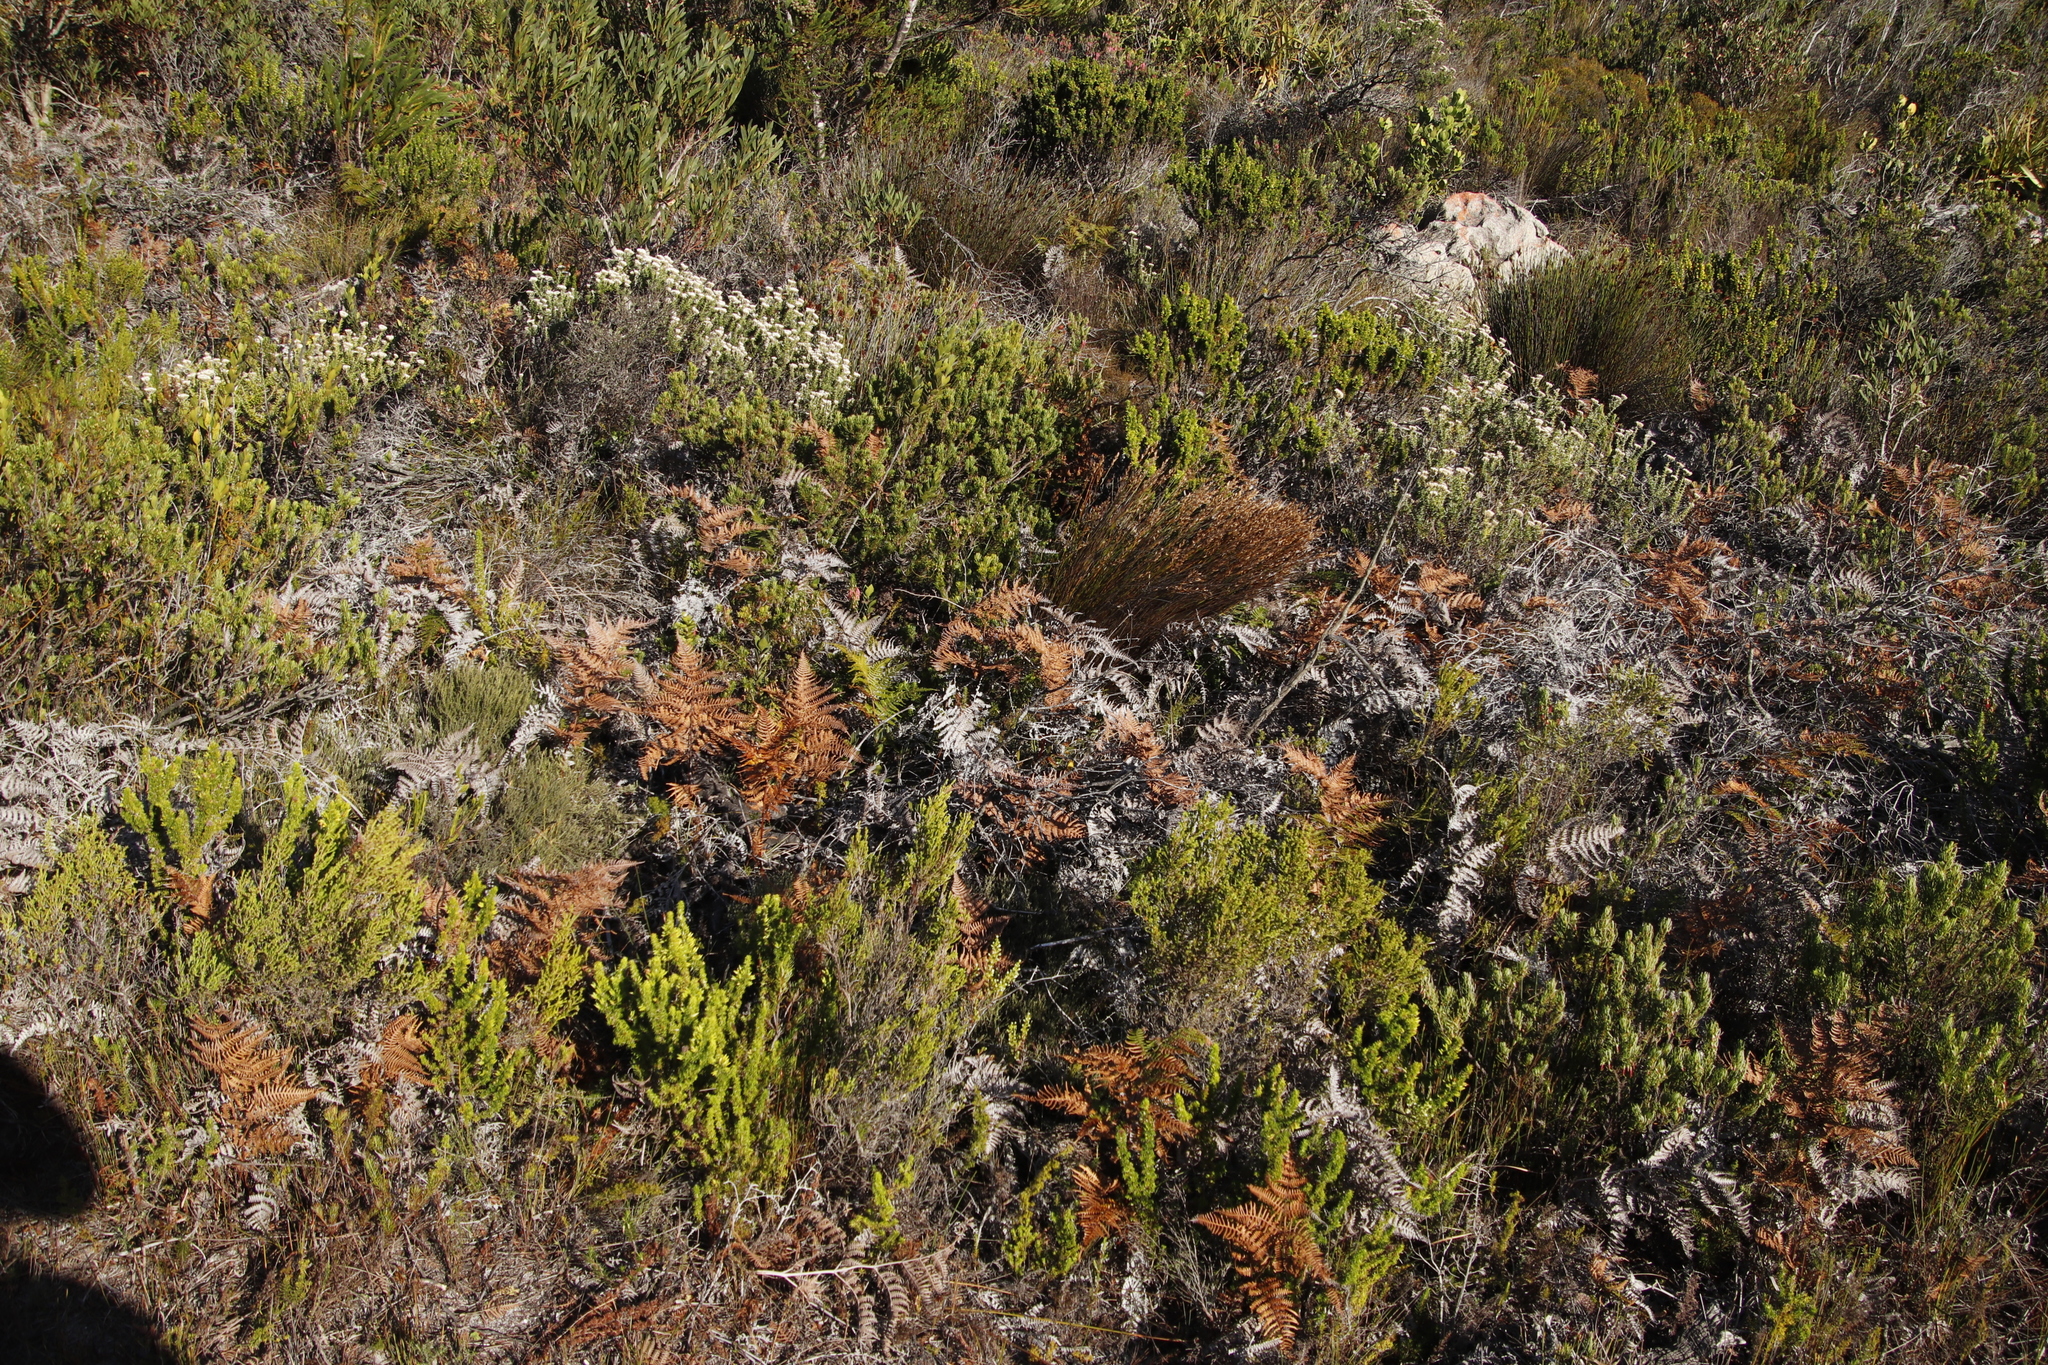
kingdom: Plantae
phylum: Tracheophyta
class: Polypodiopsida
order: Polypodiales
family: Dennstaedtiaceae
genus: Pteridium
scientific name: Pteridium aquilinum
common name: Bracken
